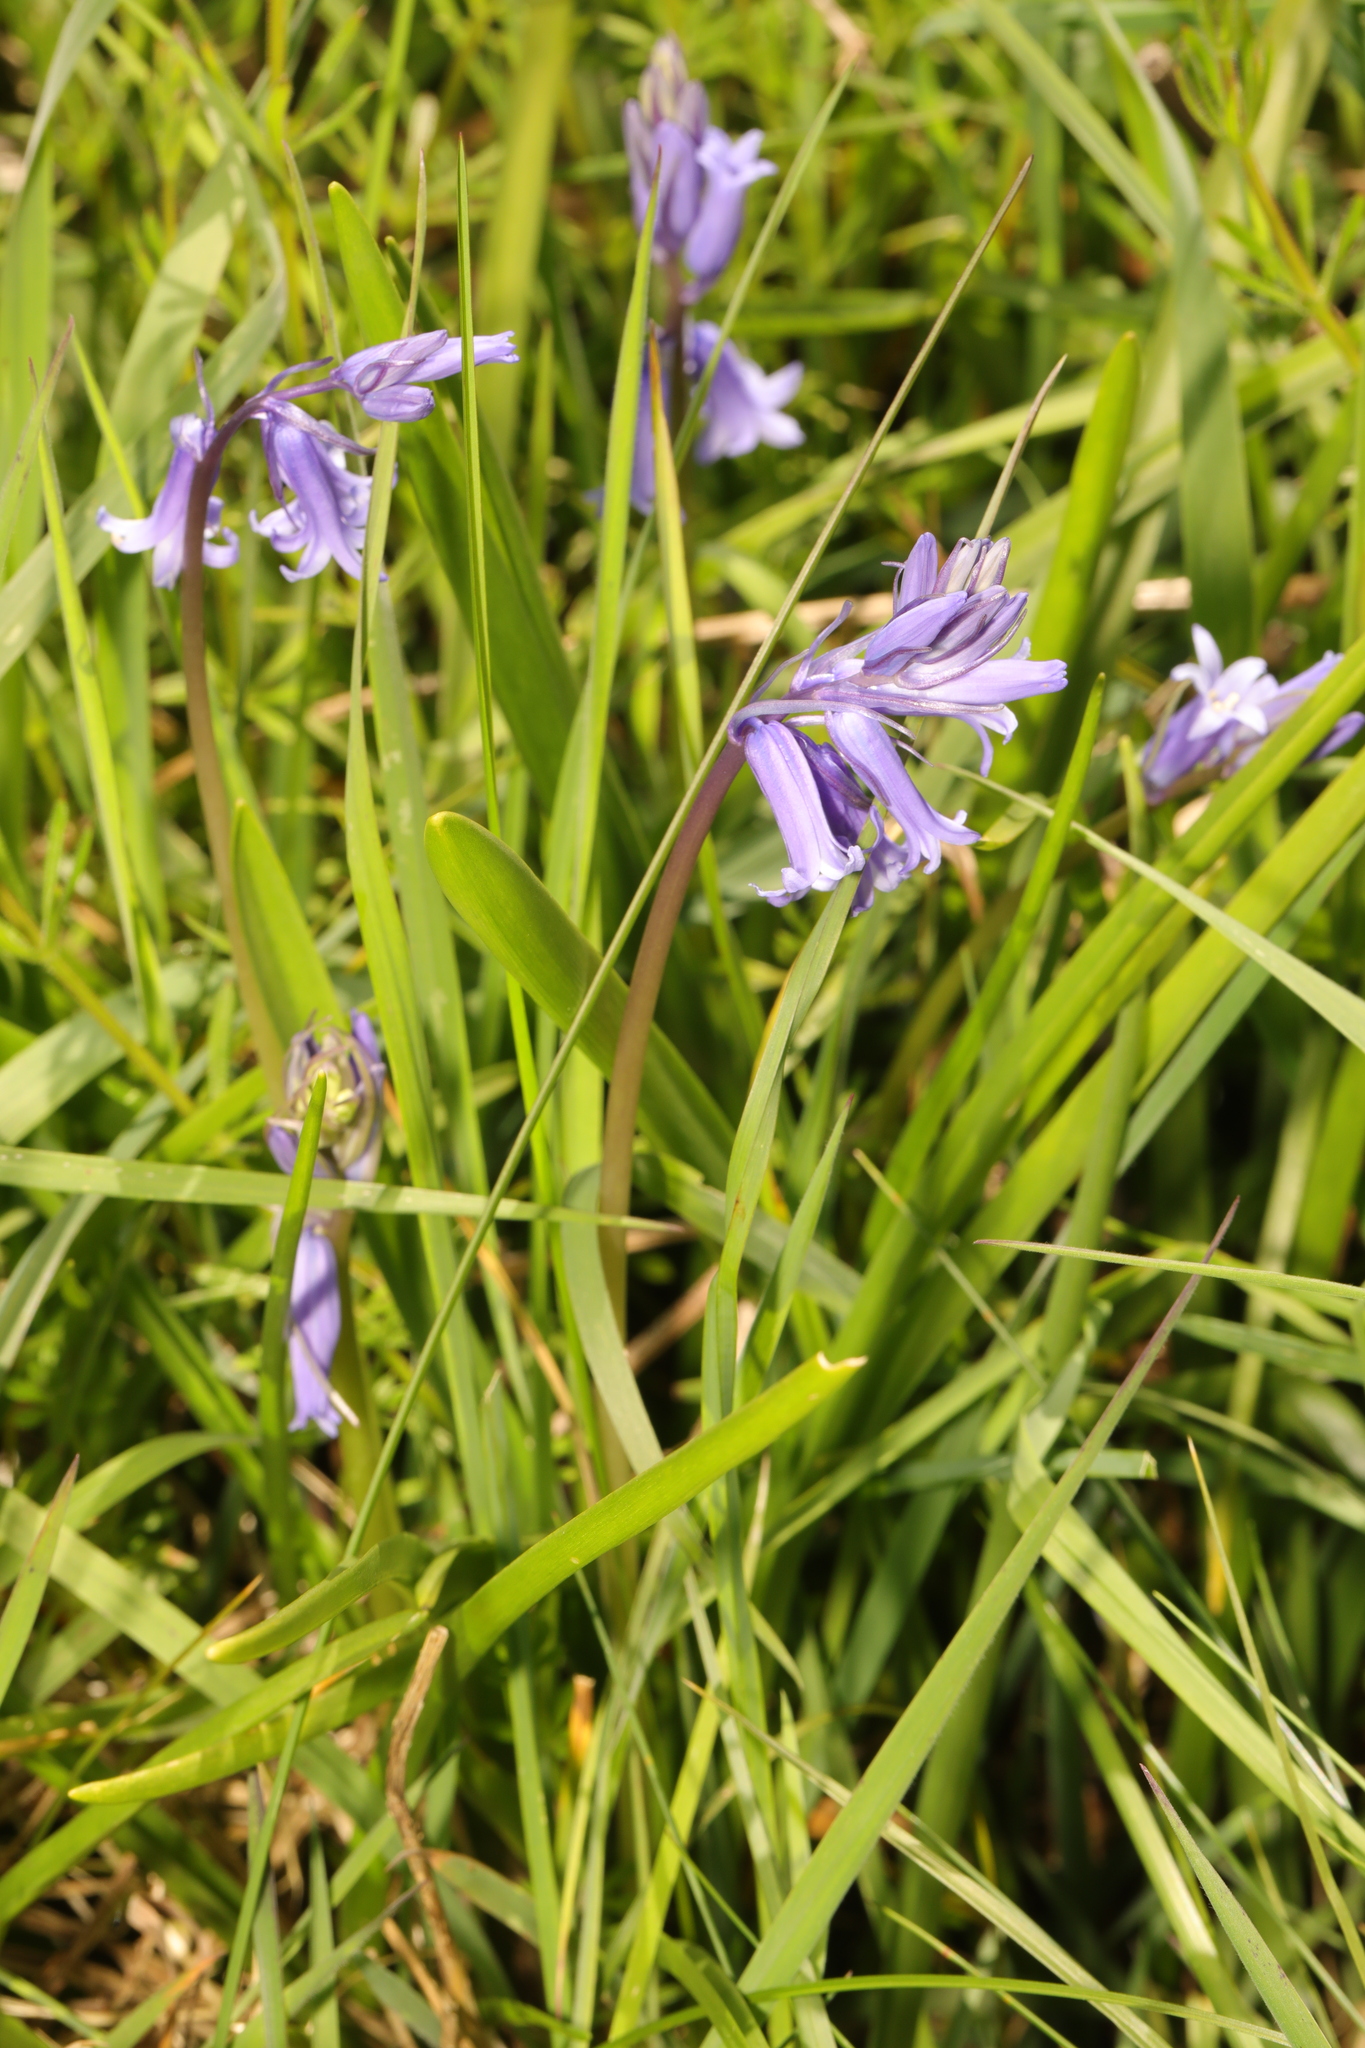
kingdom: Plantae
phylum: Tracheophyta
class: Liliopsida
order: Asparagales
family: Asparagaceae
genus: Hyacinthoides
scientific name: Hyacinthoides non-scripta
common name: Bluebell
